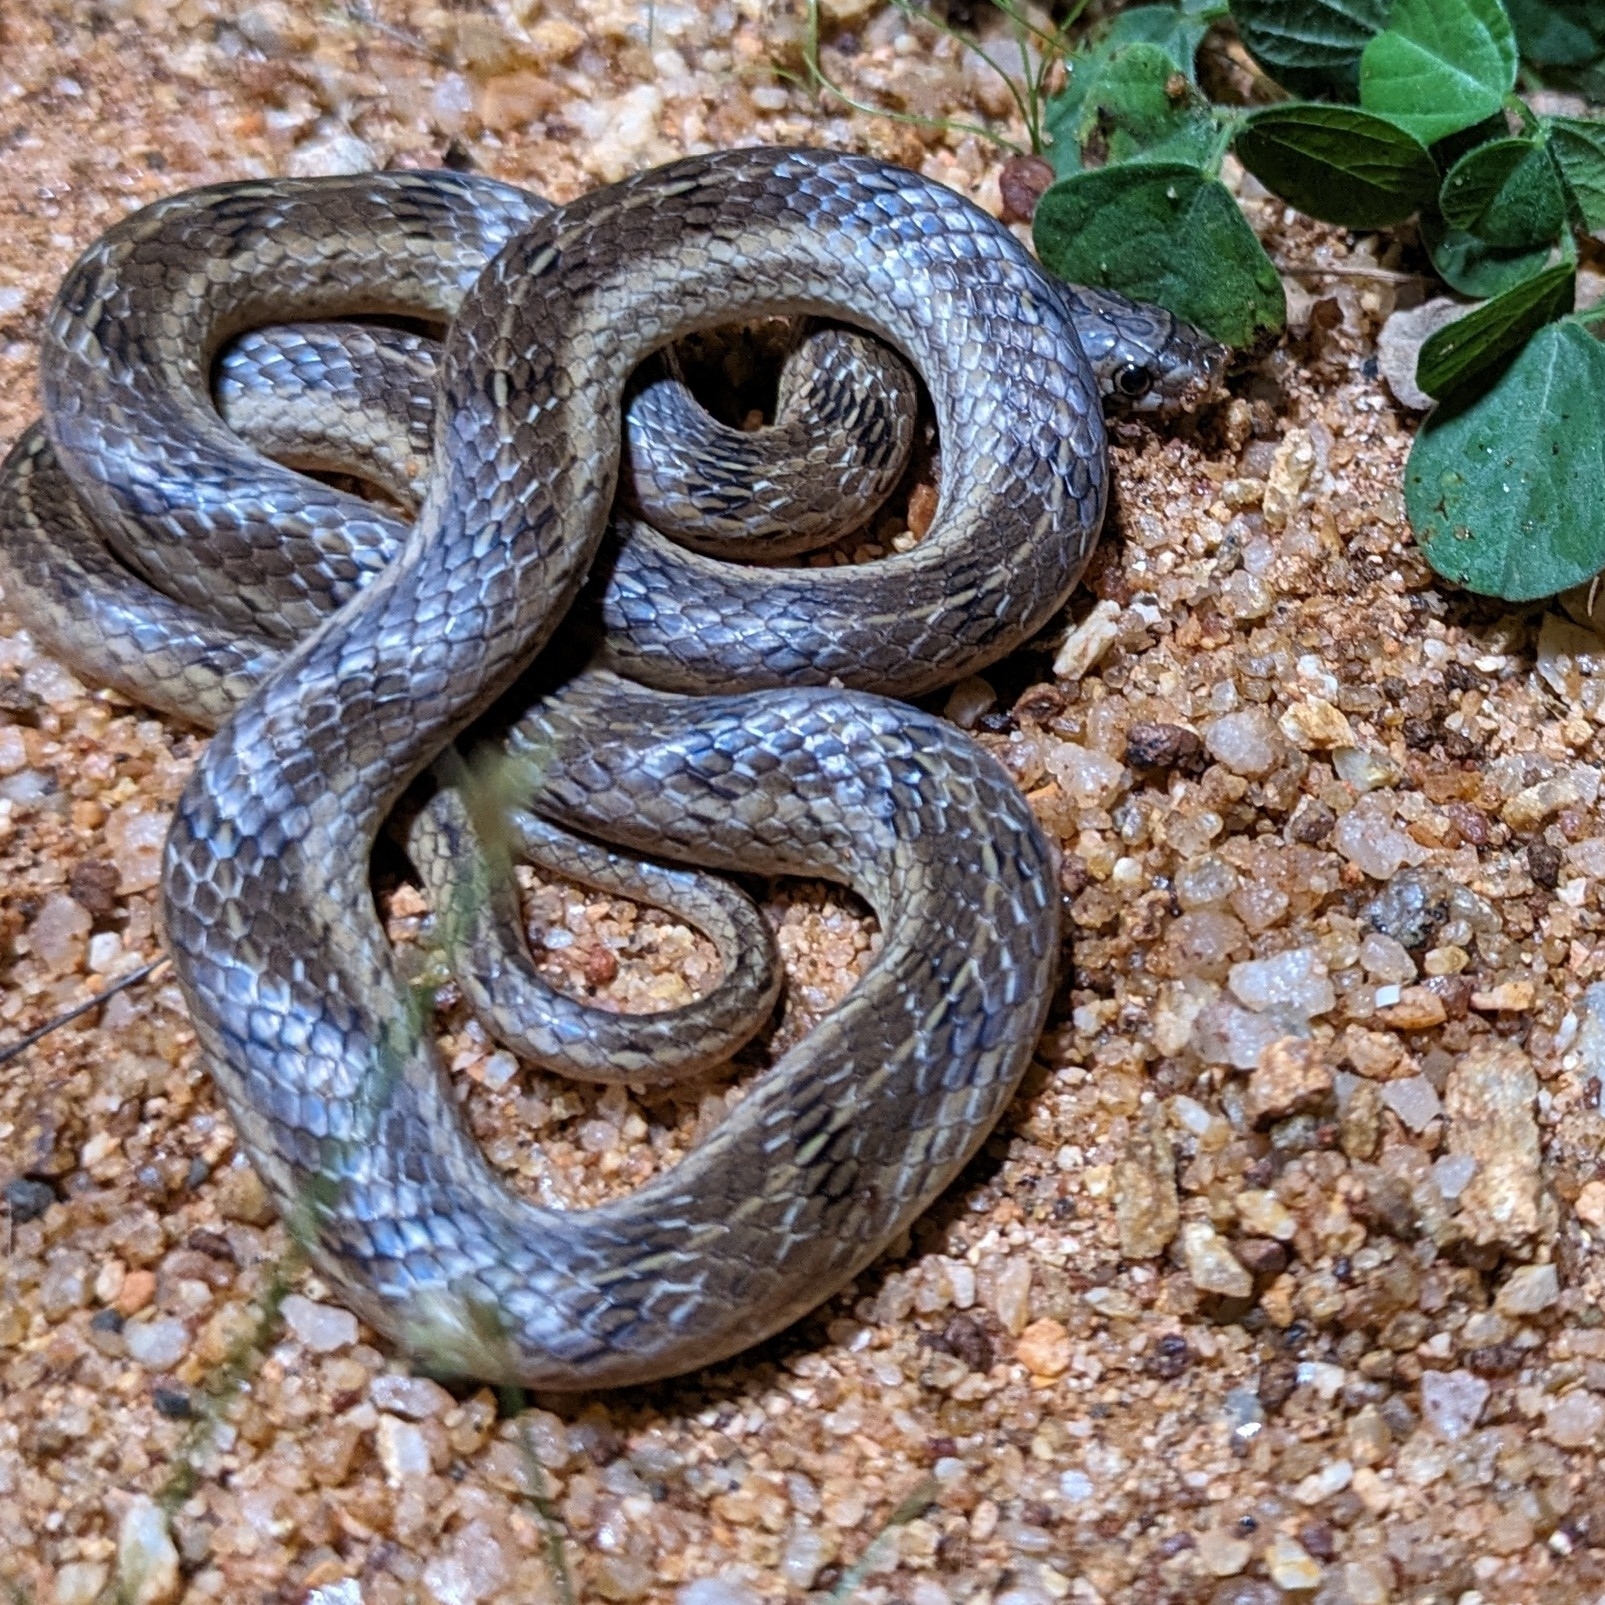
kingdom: Animalia
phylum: Chordata
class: Squamata
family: Colubridae
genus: Oligodon
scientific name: Oligodon taeniolatus
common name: Loos snake
